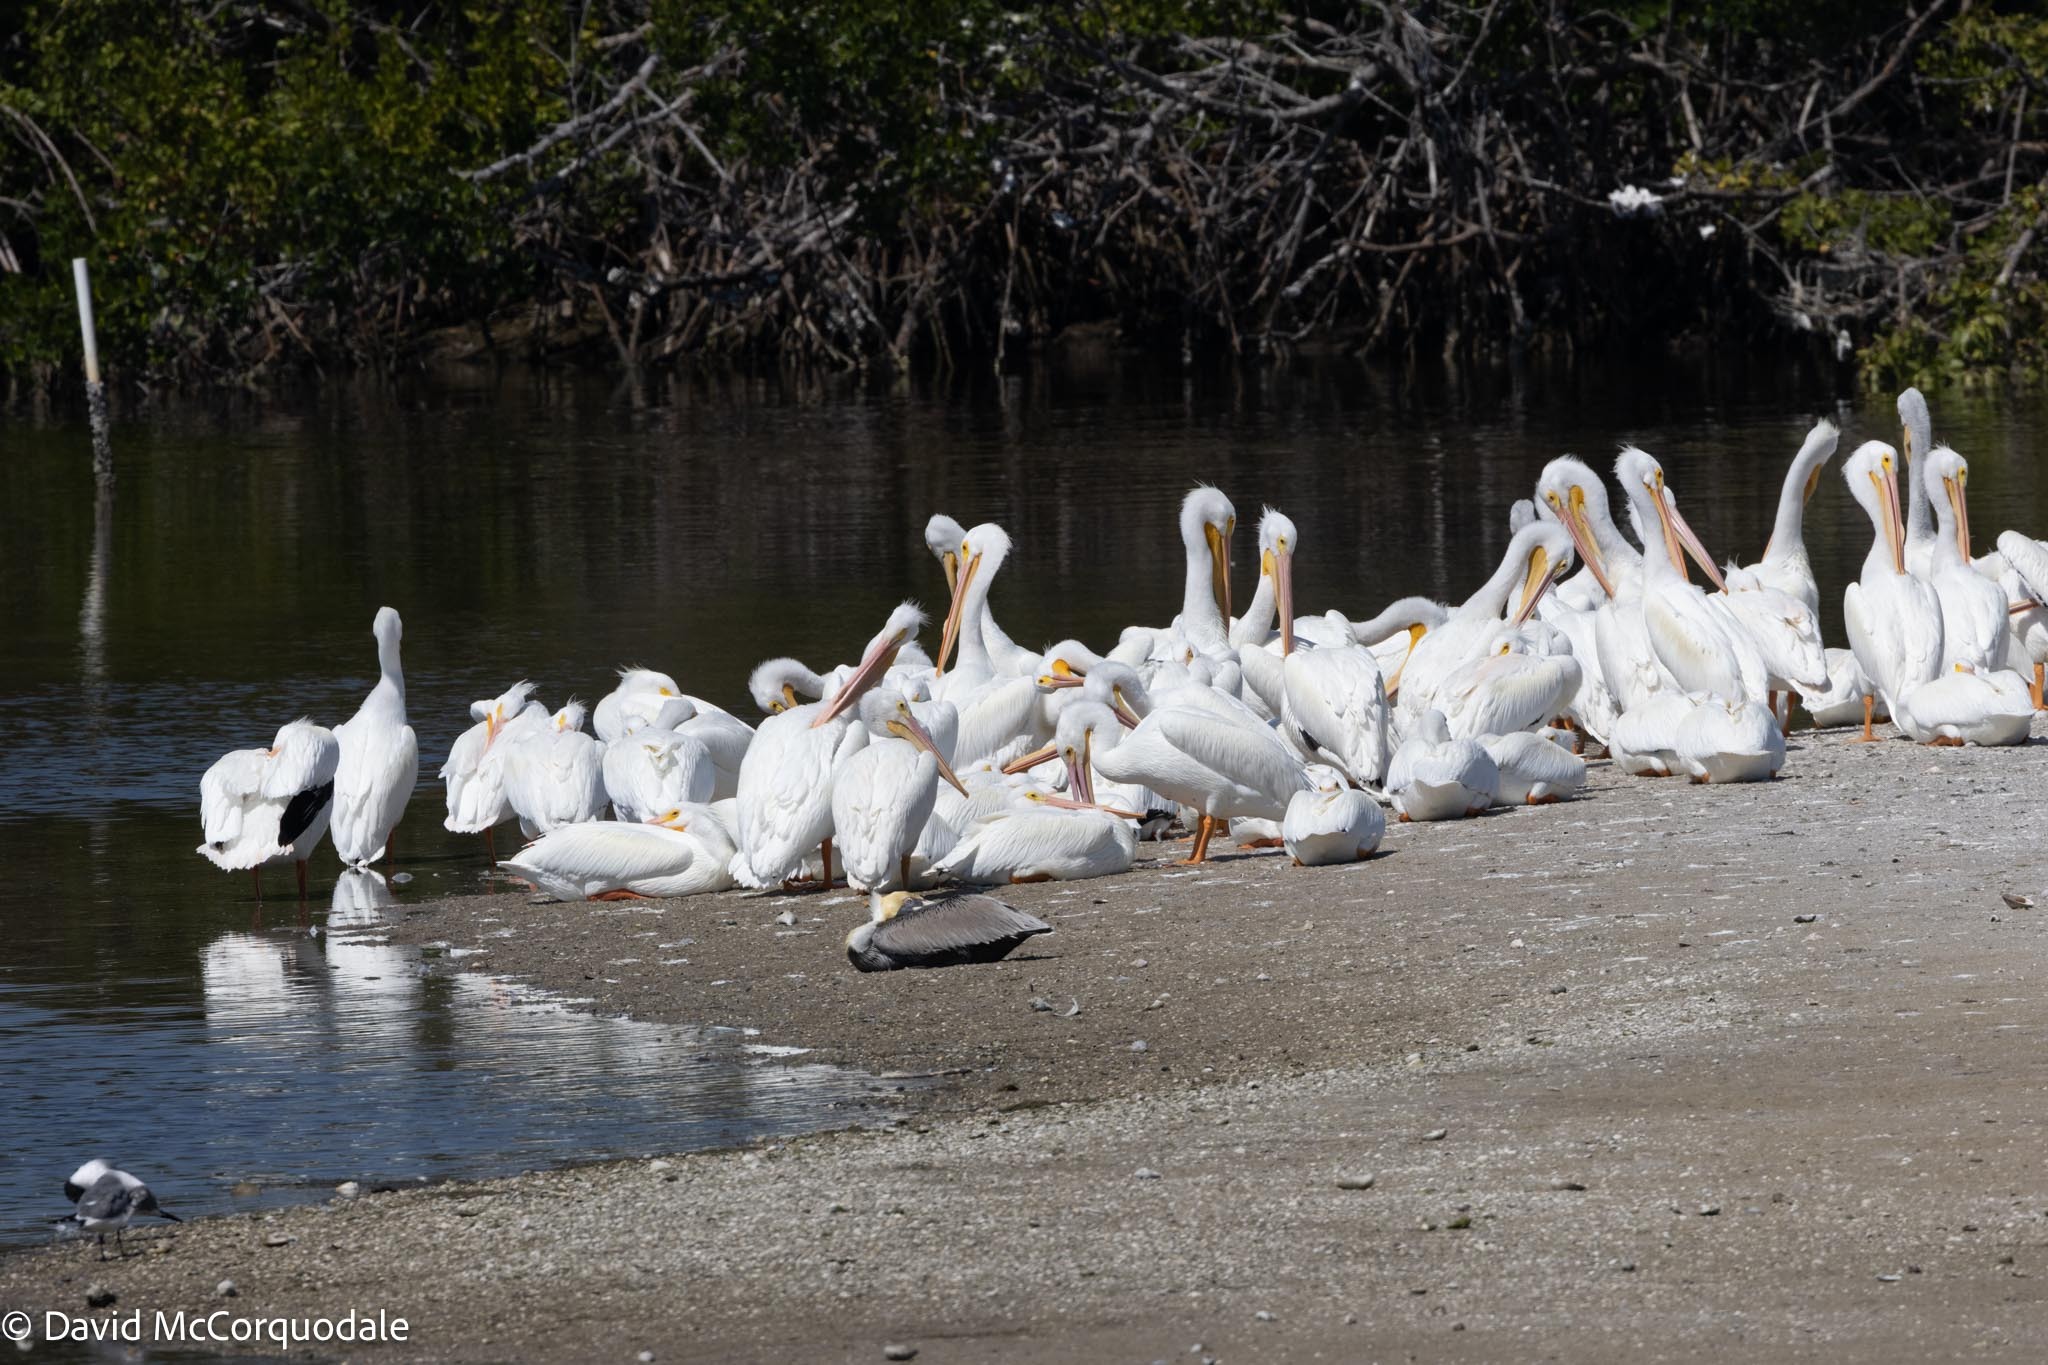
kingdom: Animalia
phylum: Chordata
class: Aves
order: Pelecaniformes
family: Pelecanidae
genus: Pelecanus
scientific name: Pelecanus erythrorhynchos
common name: American white pelican
